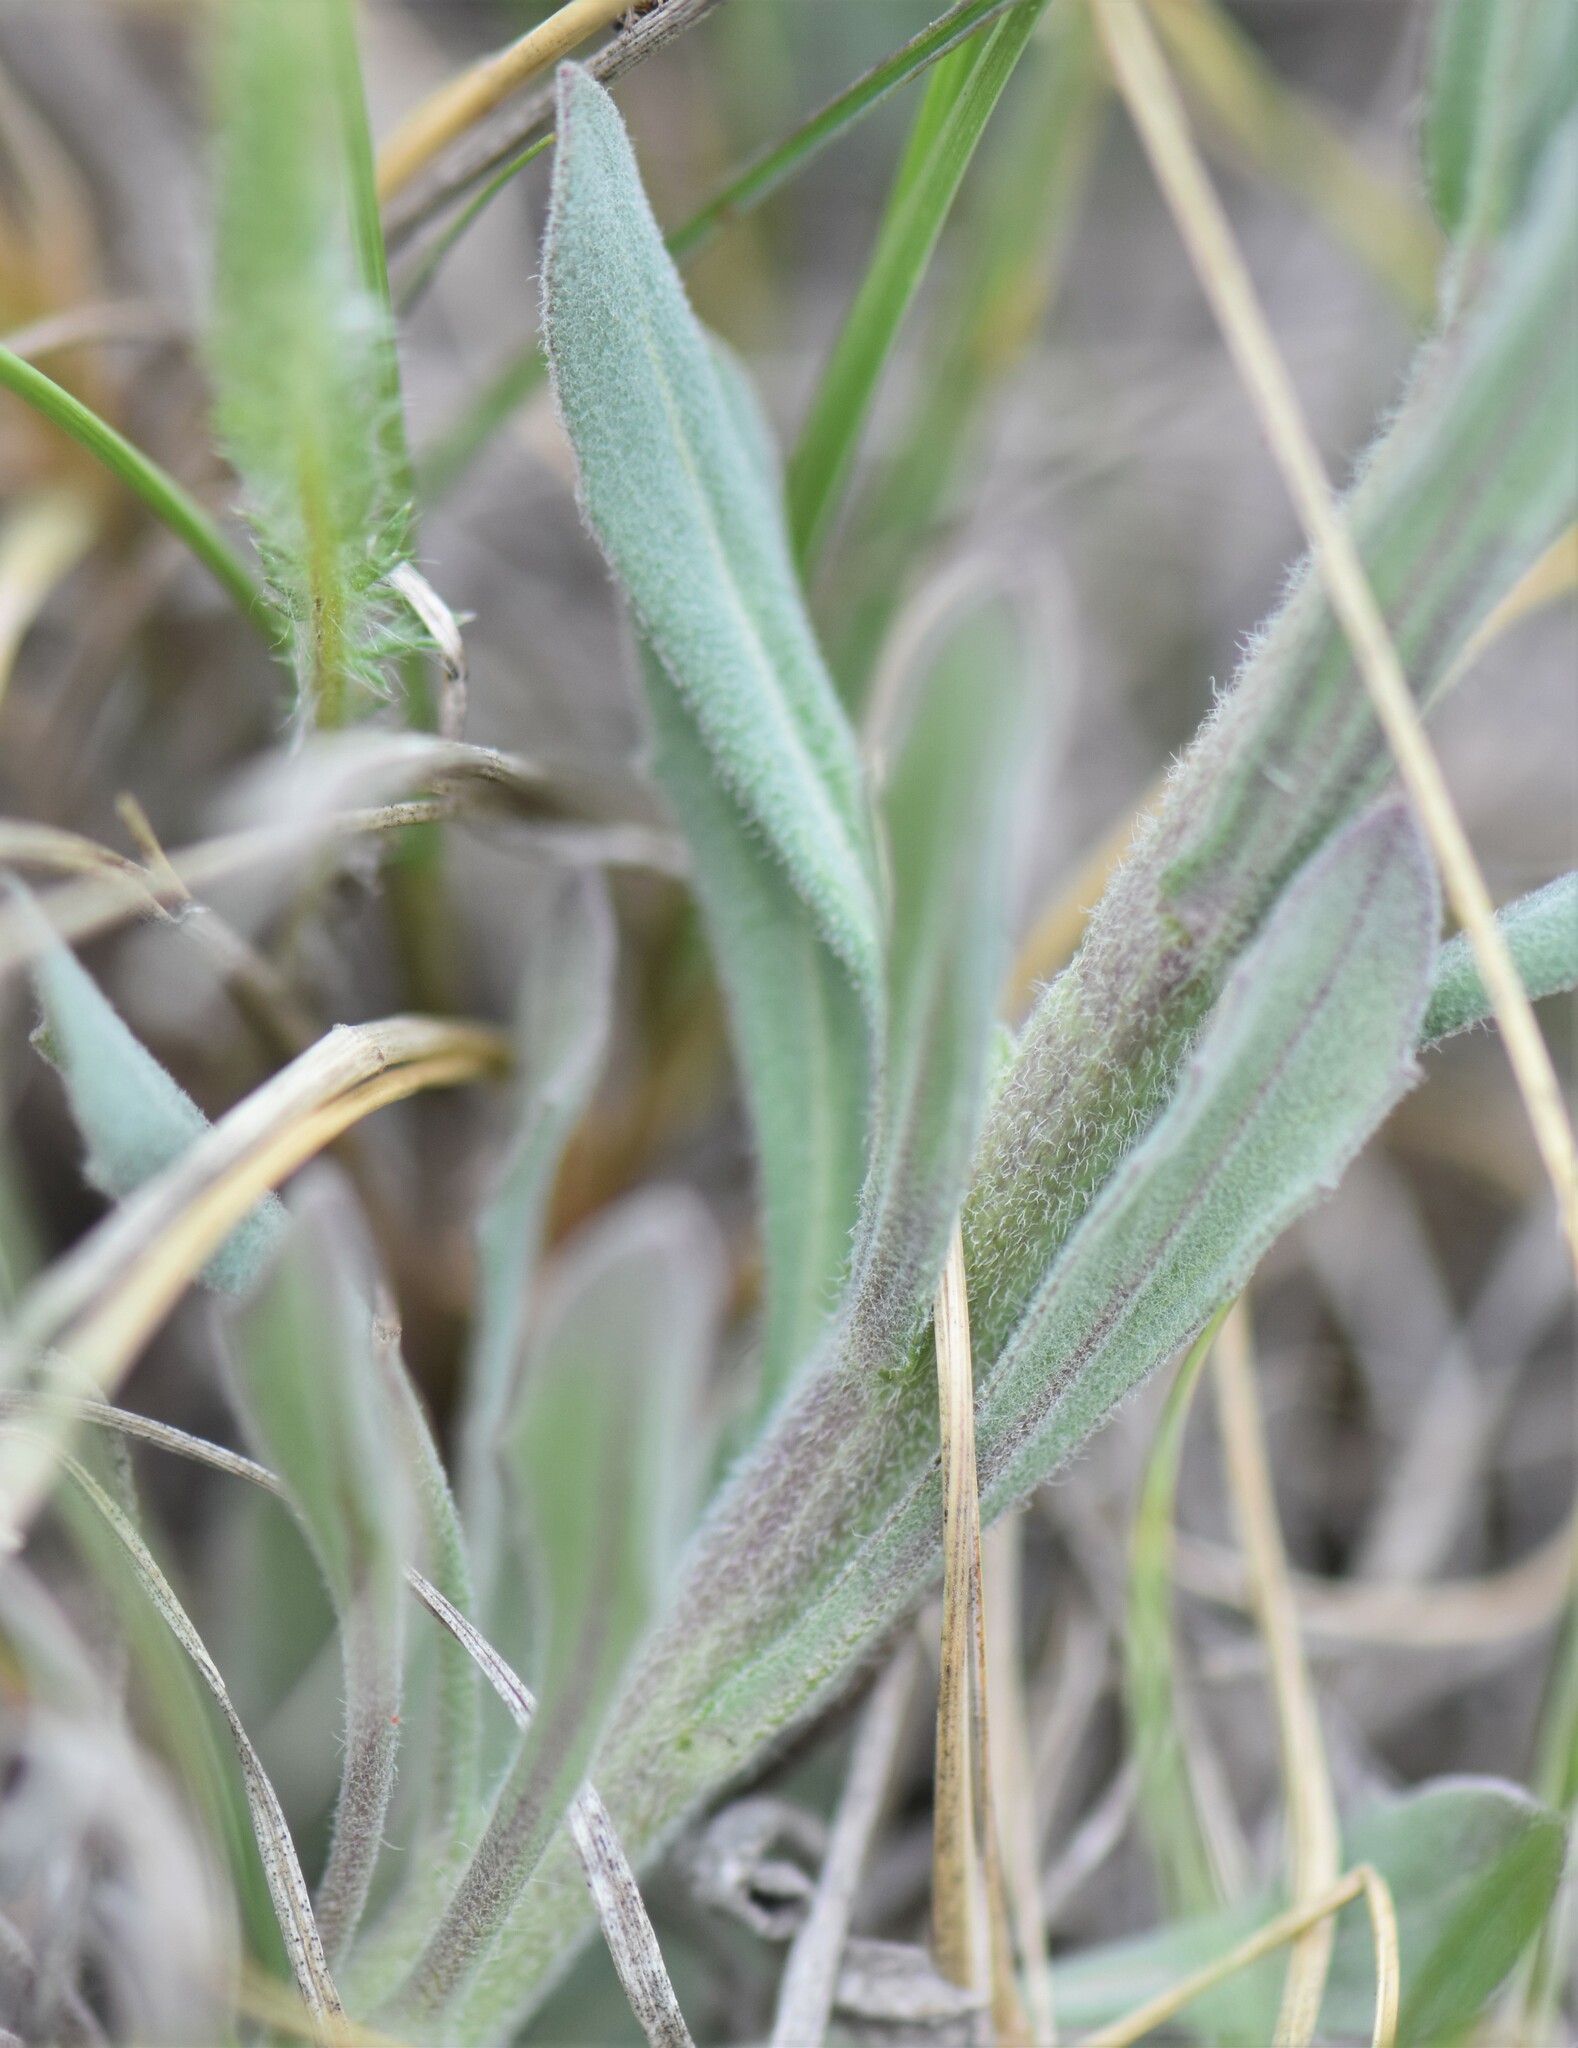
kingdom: Plantae
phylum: Tracheophyta
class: Magnoliopsida
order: Brassicales
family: Brassicaceae
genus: Boechera
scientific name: Boechera retrofracta
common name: Dangling suncress
